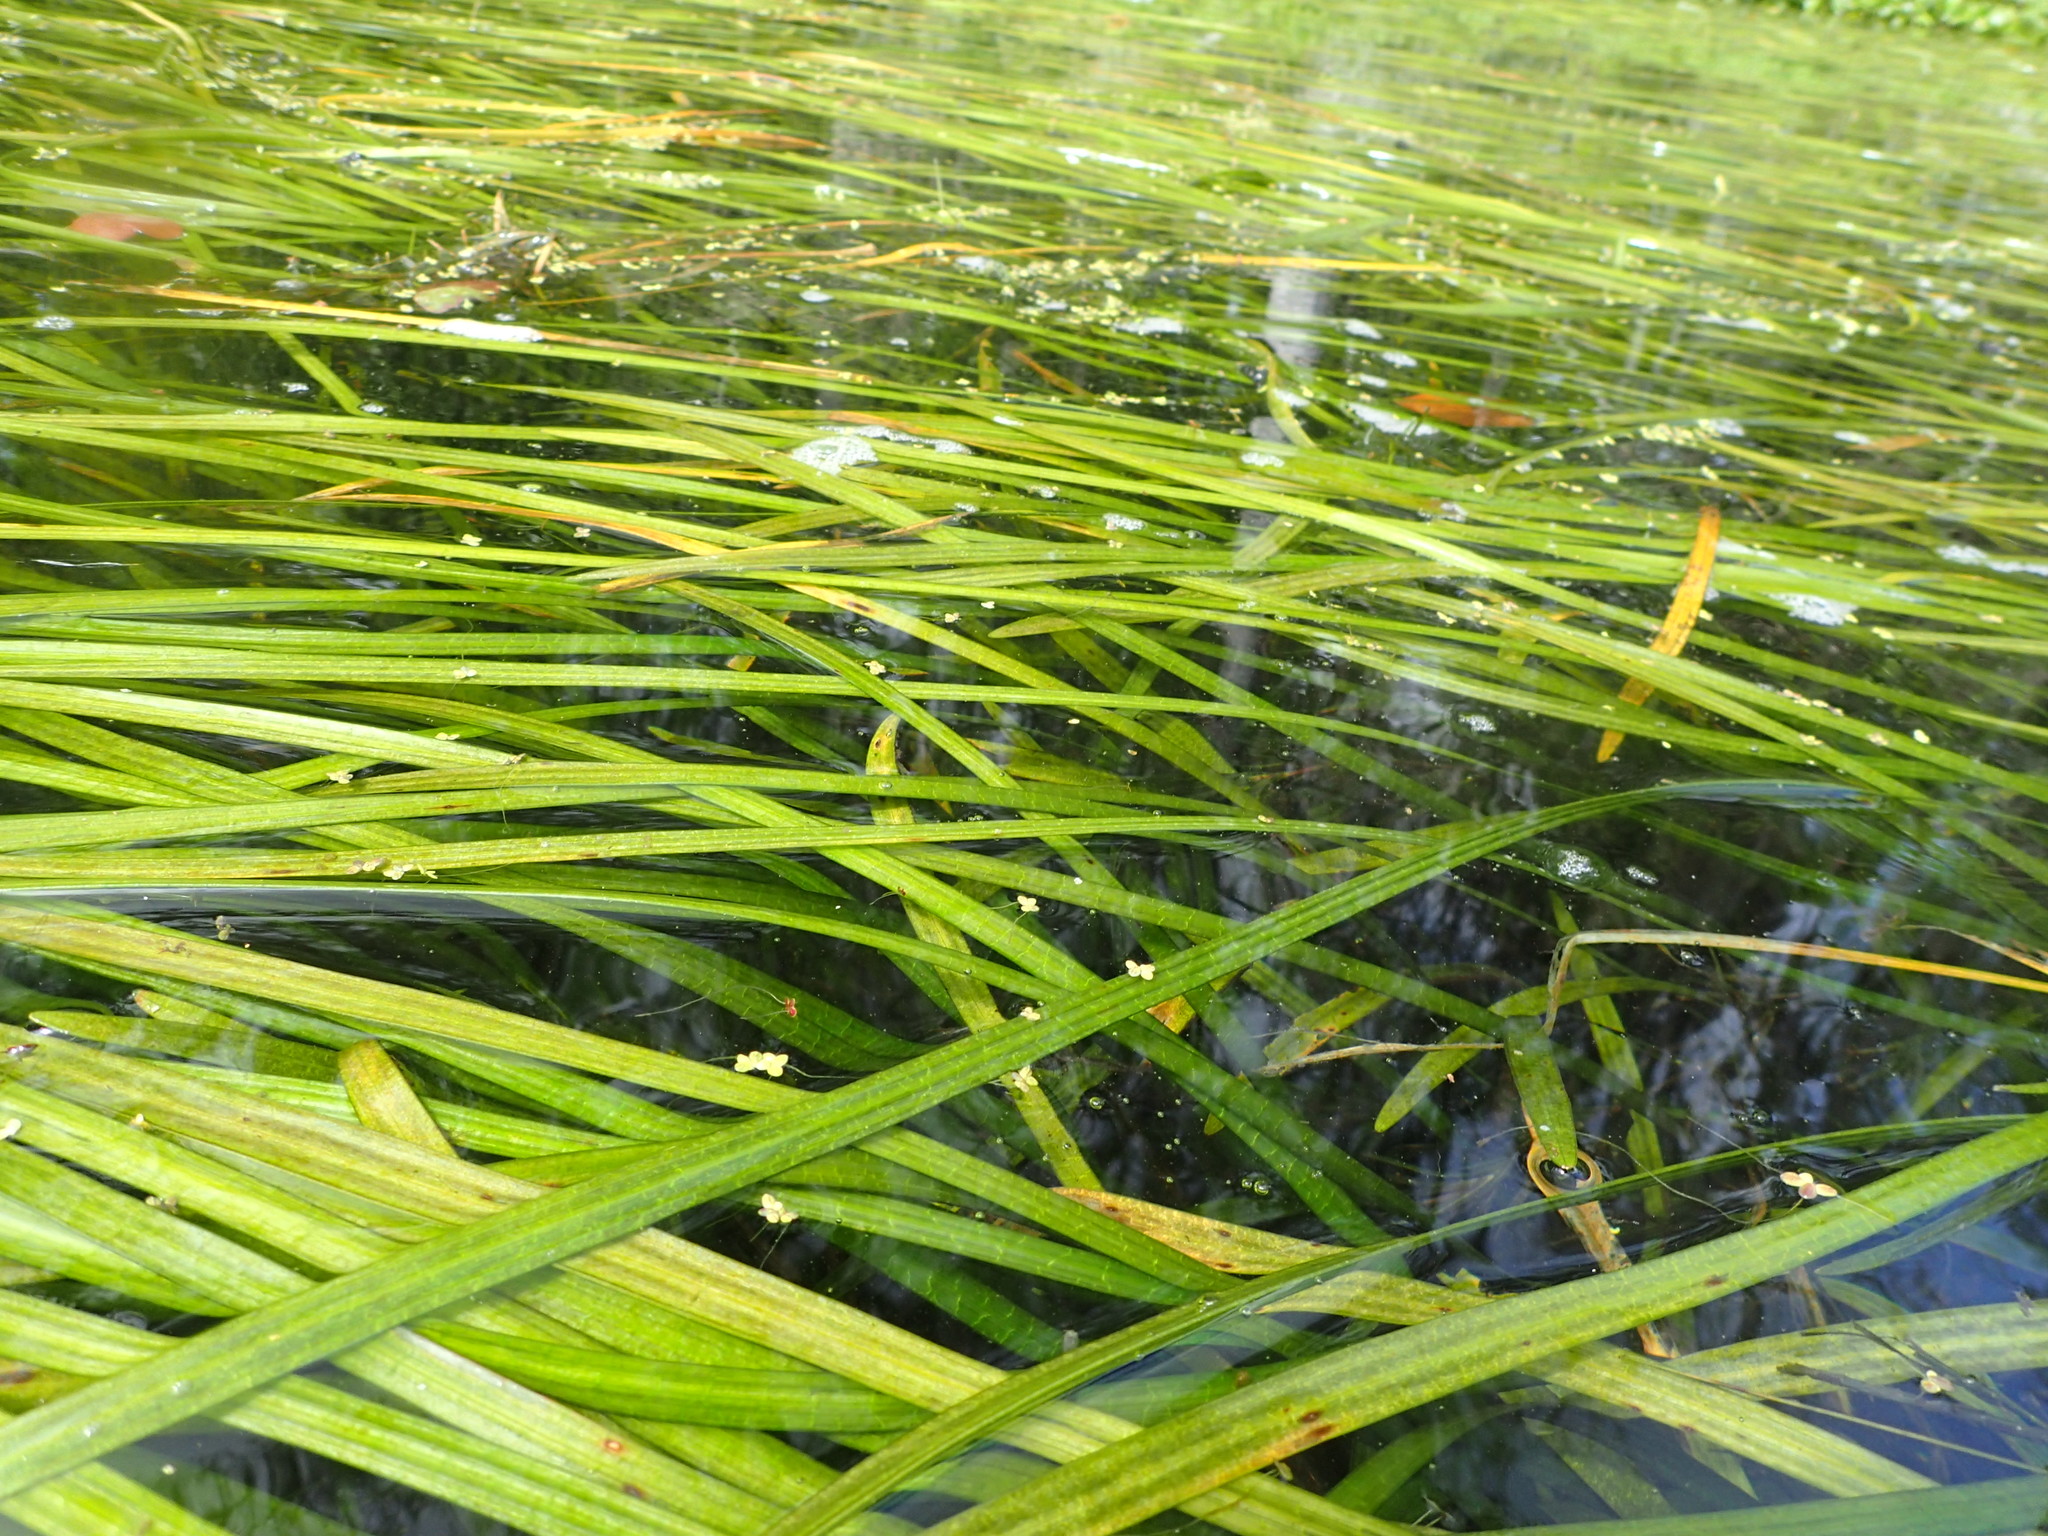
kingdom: Plantae
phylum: Tracheophyta
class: Liliopsida
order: Alismatales
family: Hydrocharitaceae
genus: Vallisneria
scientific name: Vallisneria americana
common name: American eelgrass
